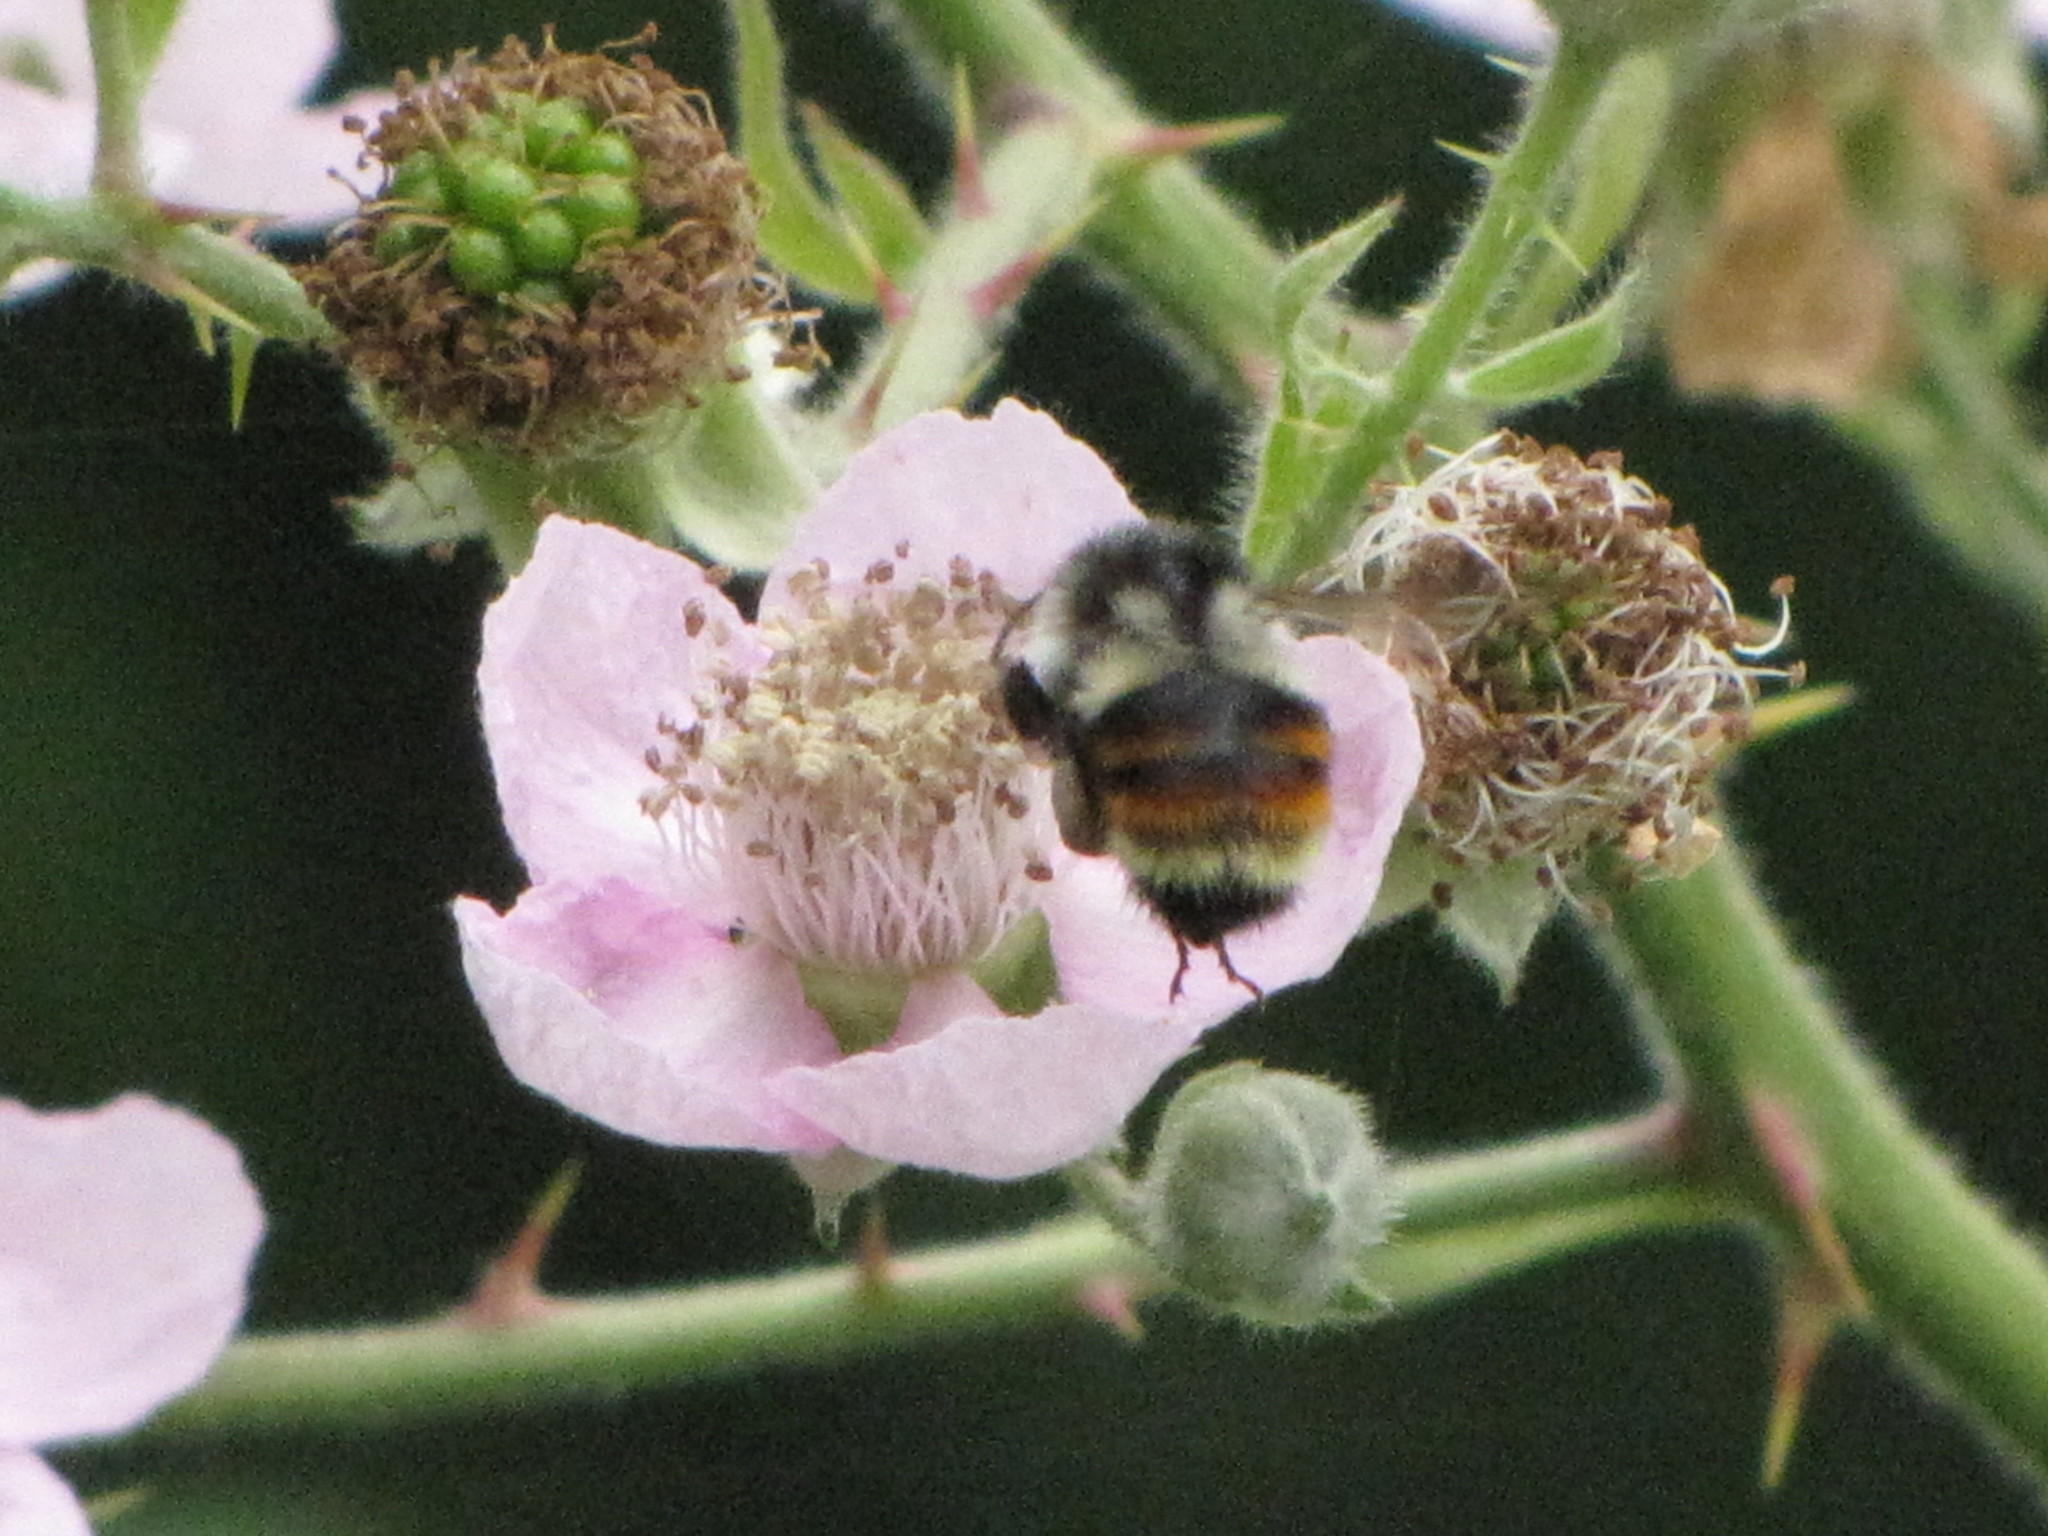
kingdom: Animalia
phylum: Arthropoda
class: Insecta
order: Hymenoptera
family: Apidae
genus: Bombus
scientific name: Bombus vancouverensis
